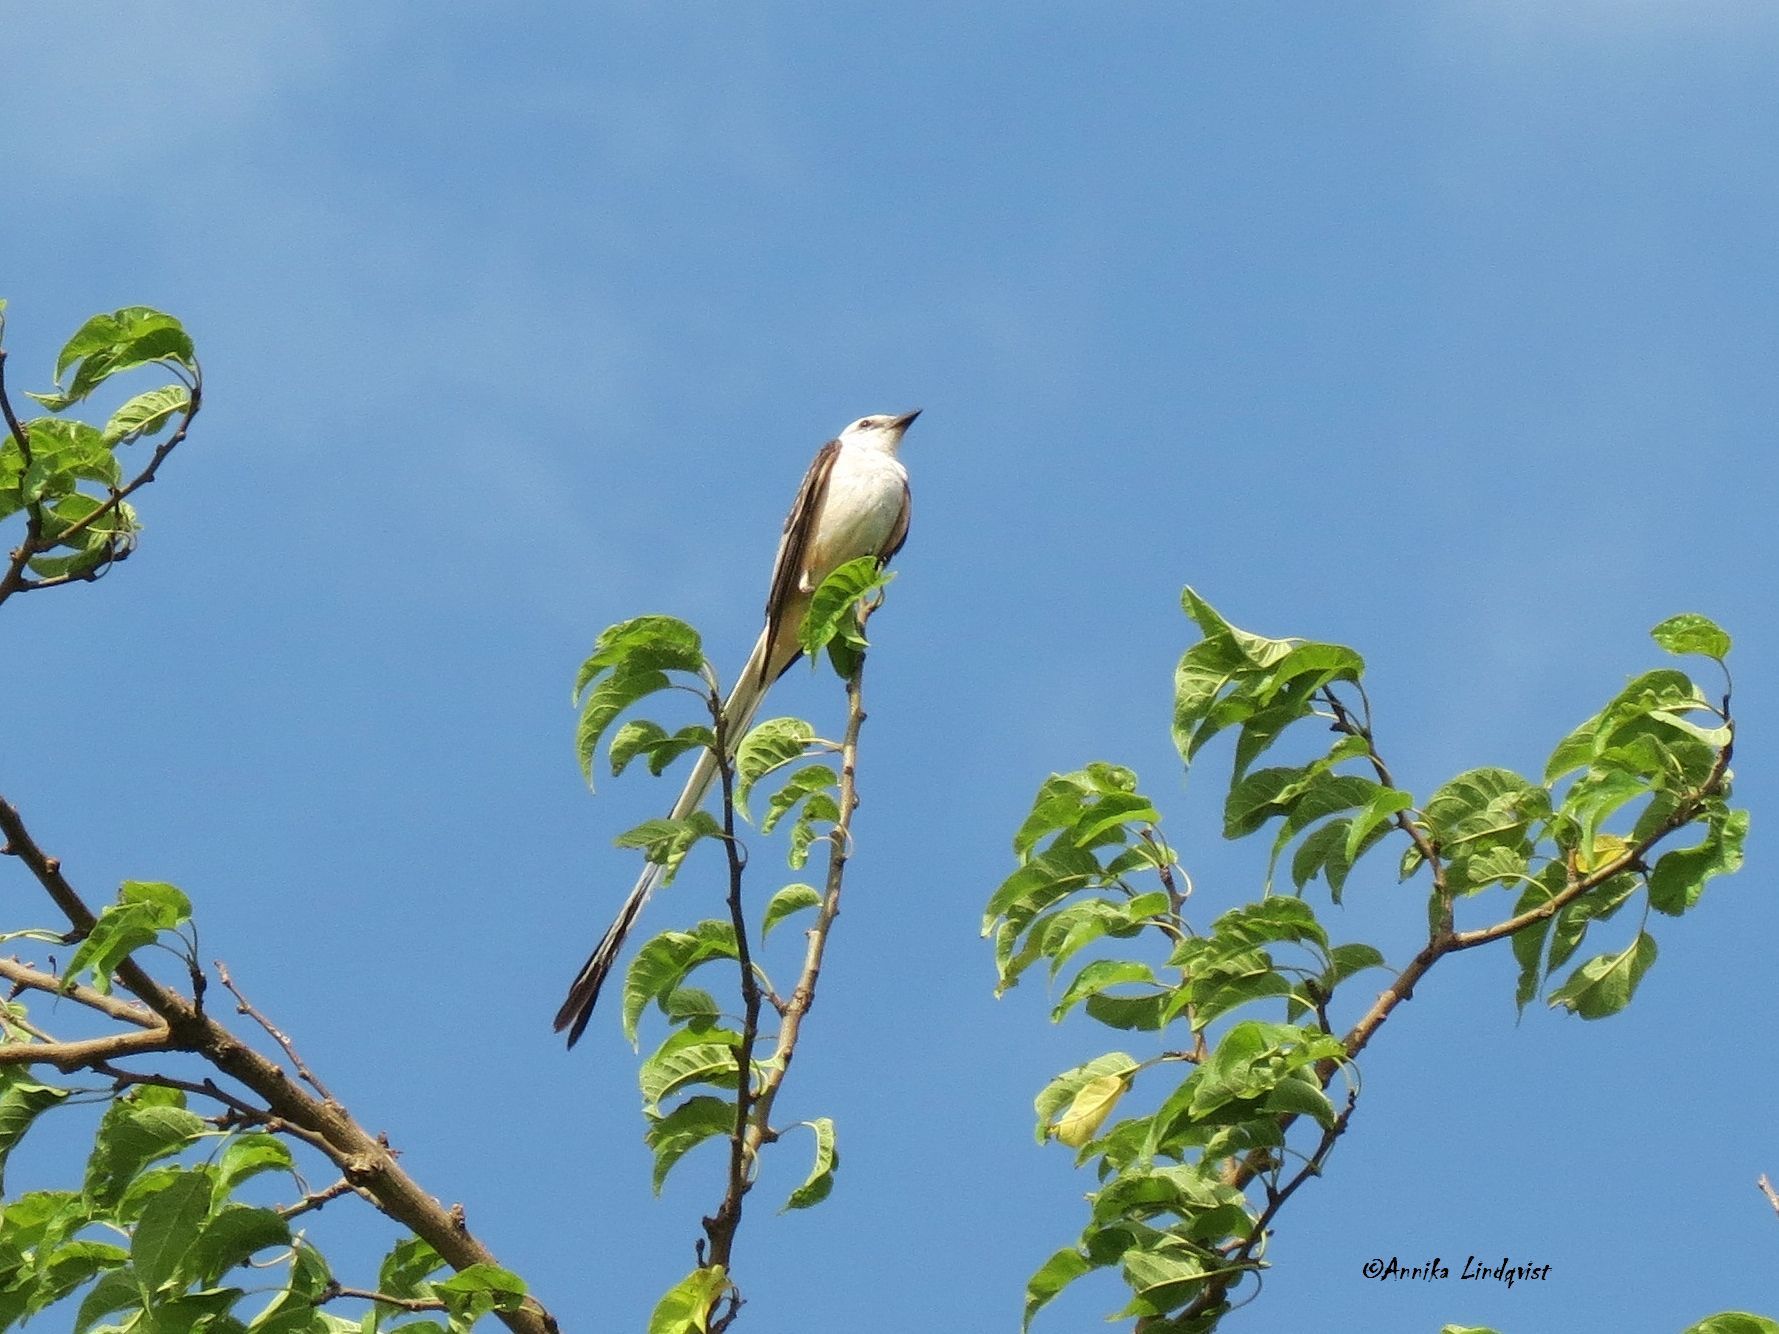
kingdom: Animalia
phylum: Chordata
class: Aves
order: Passeriformes
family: Tyrannidae
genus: Tyrannus
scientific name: Tyrannus forficatus
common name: Scissor-tailed flycatcher
